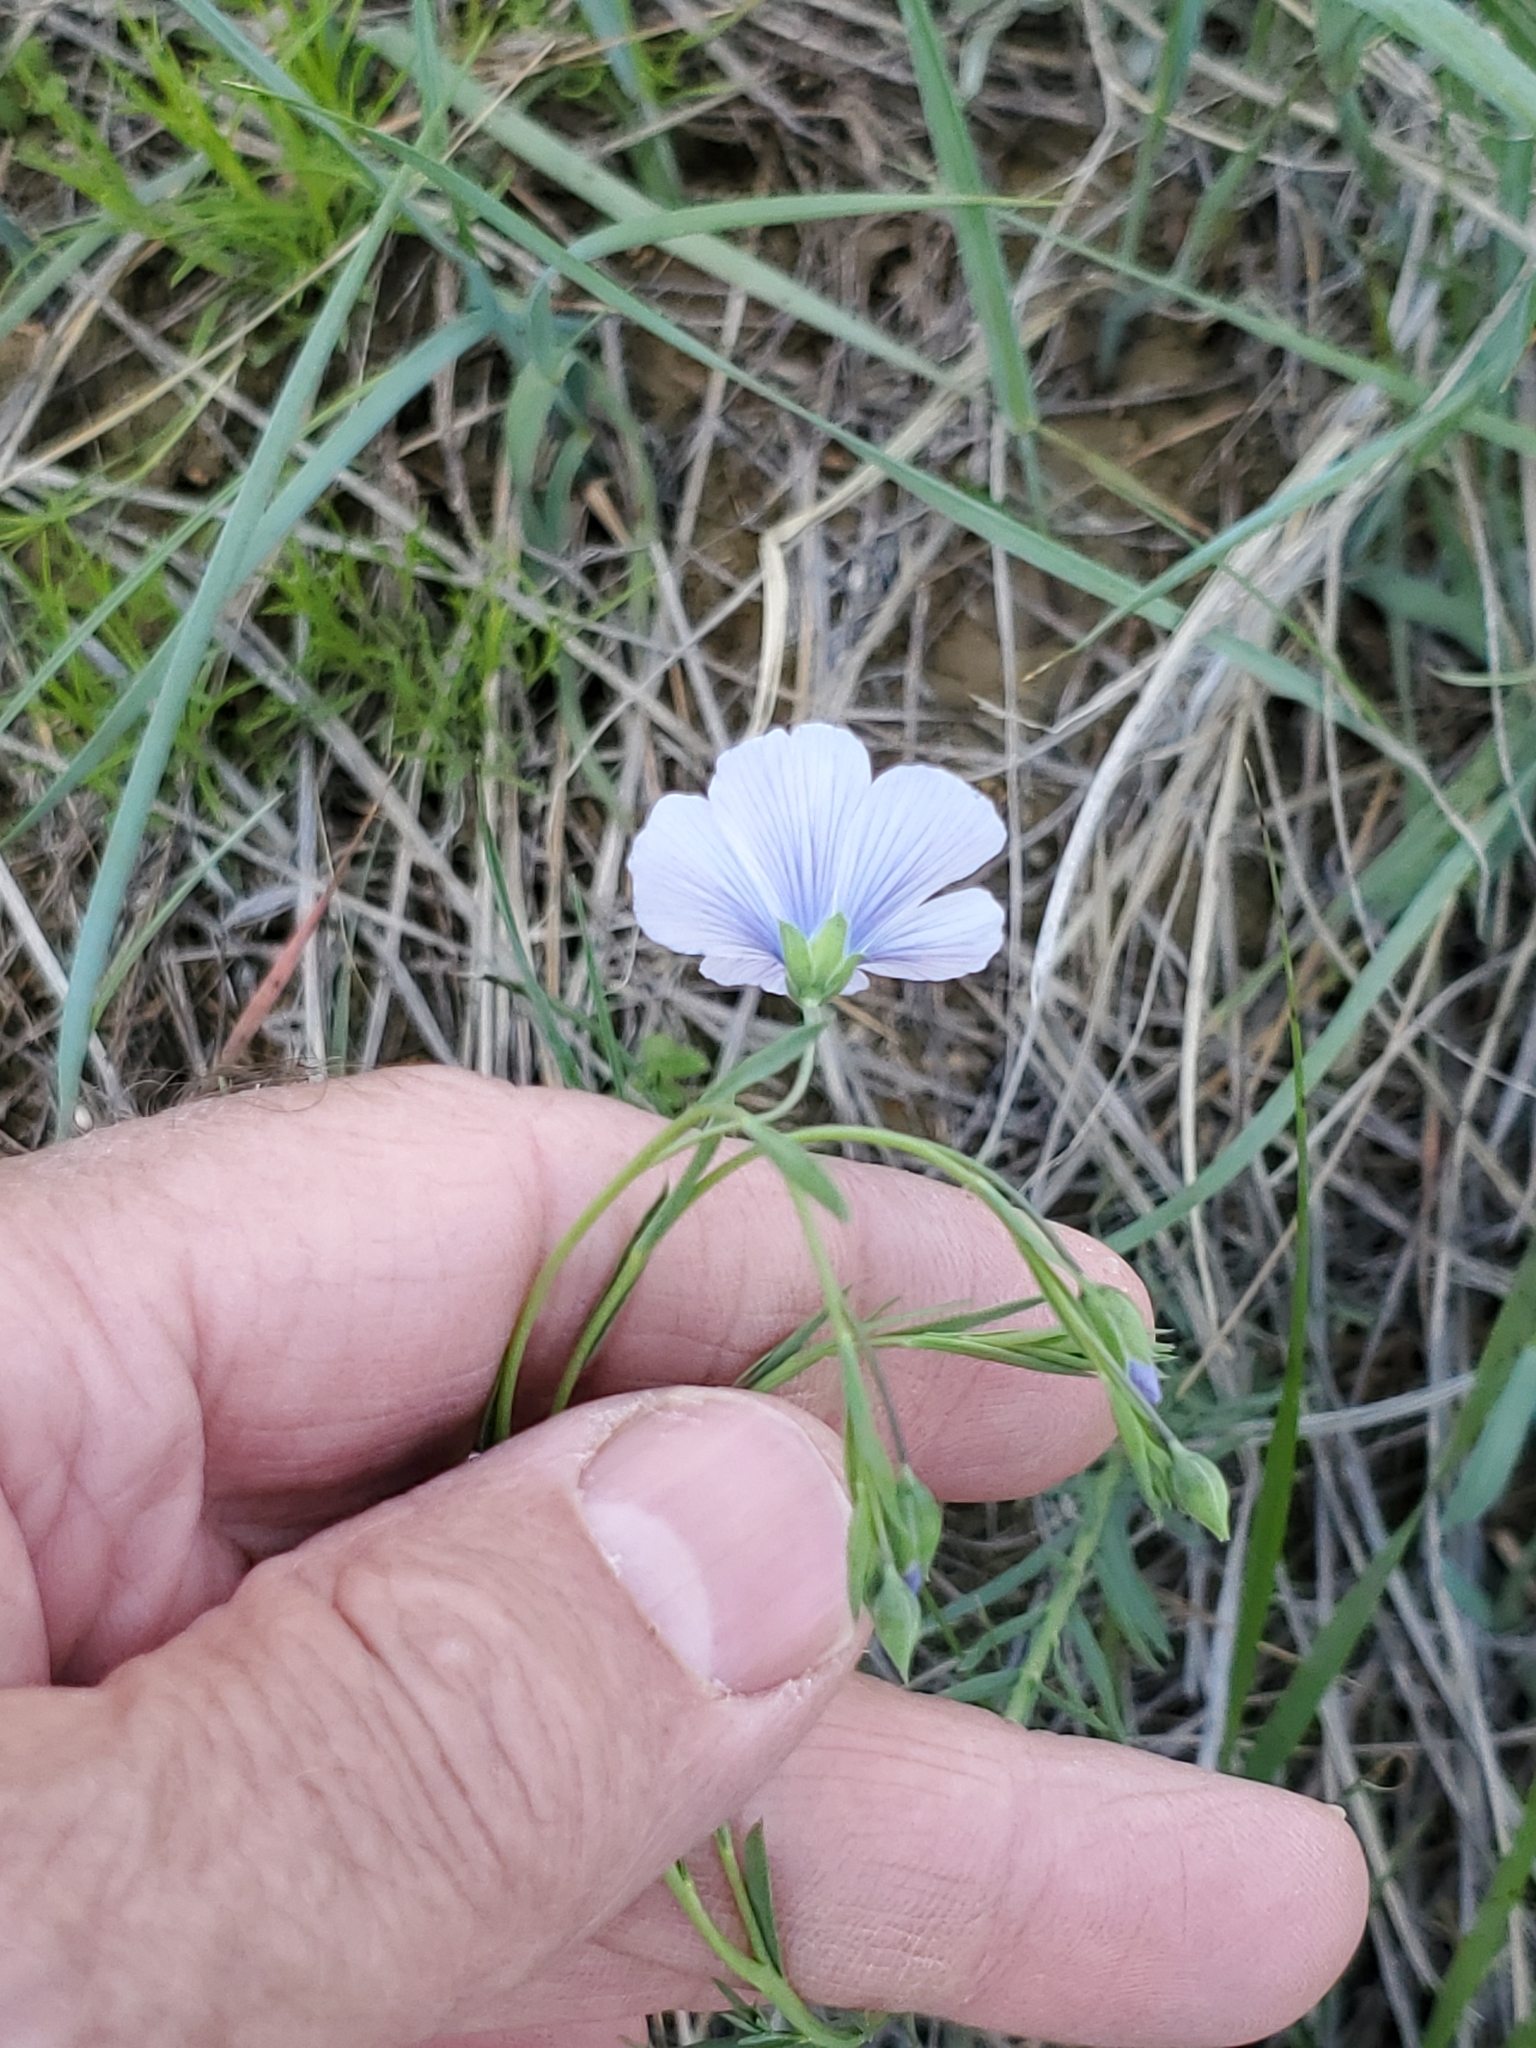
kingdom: Plantae
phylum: Tracheophyta
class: Magnoliopsida
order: Malpighiales
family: Linaceae
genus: Linum
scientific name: Linum lewisii
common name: Prairie flax
